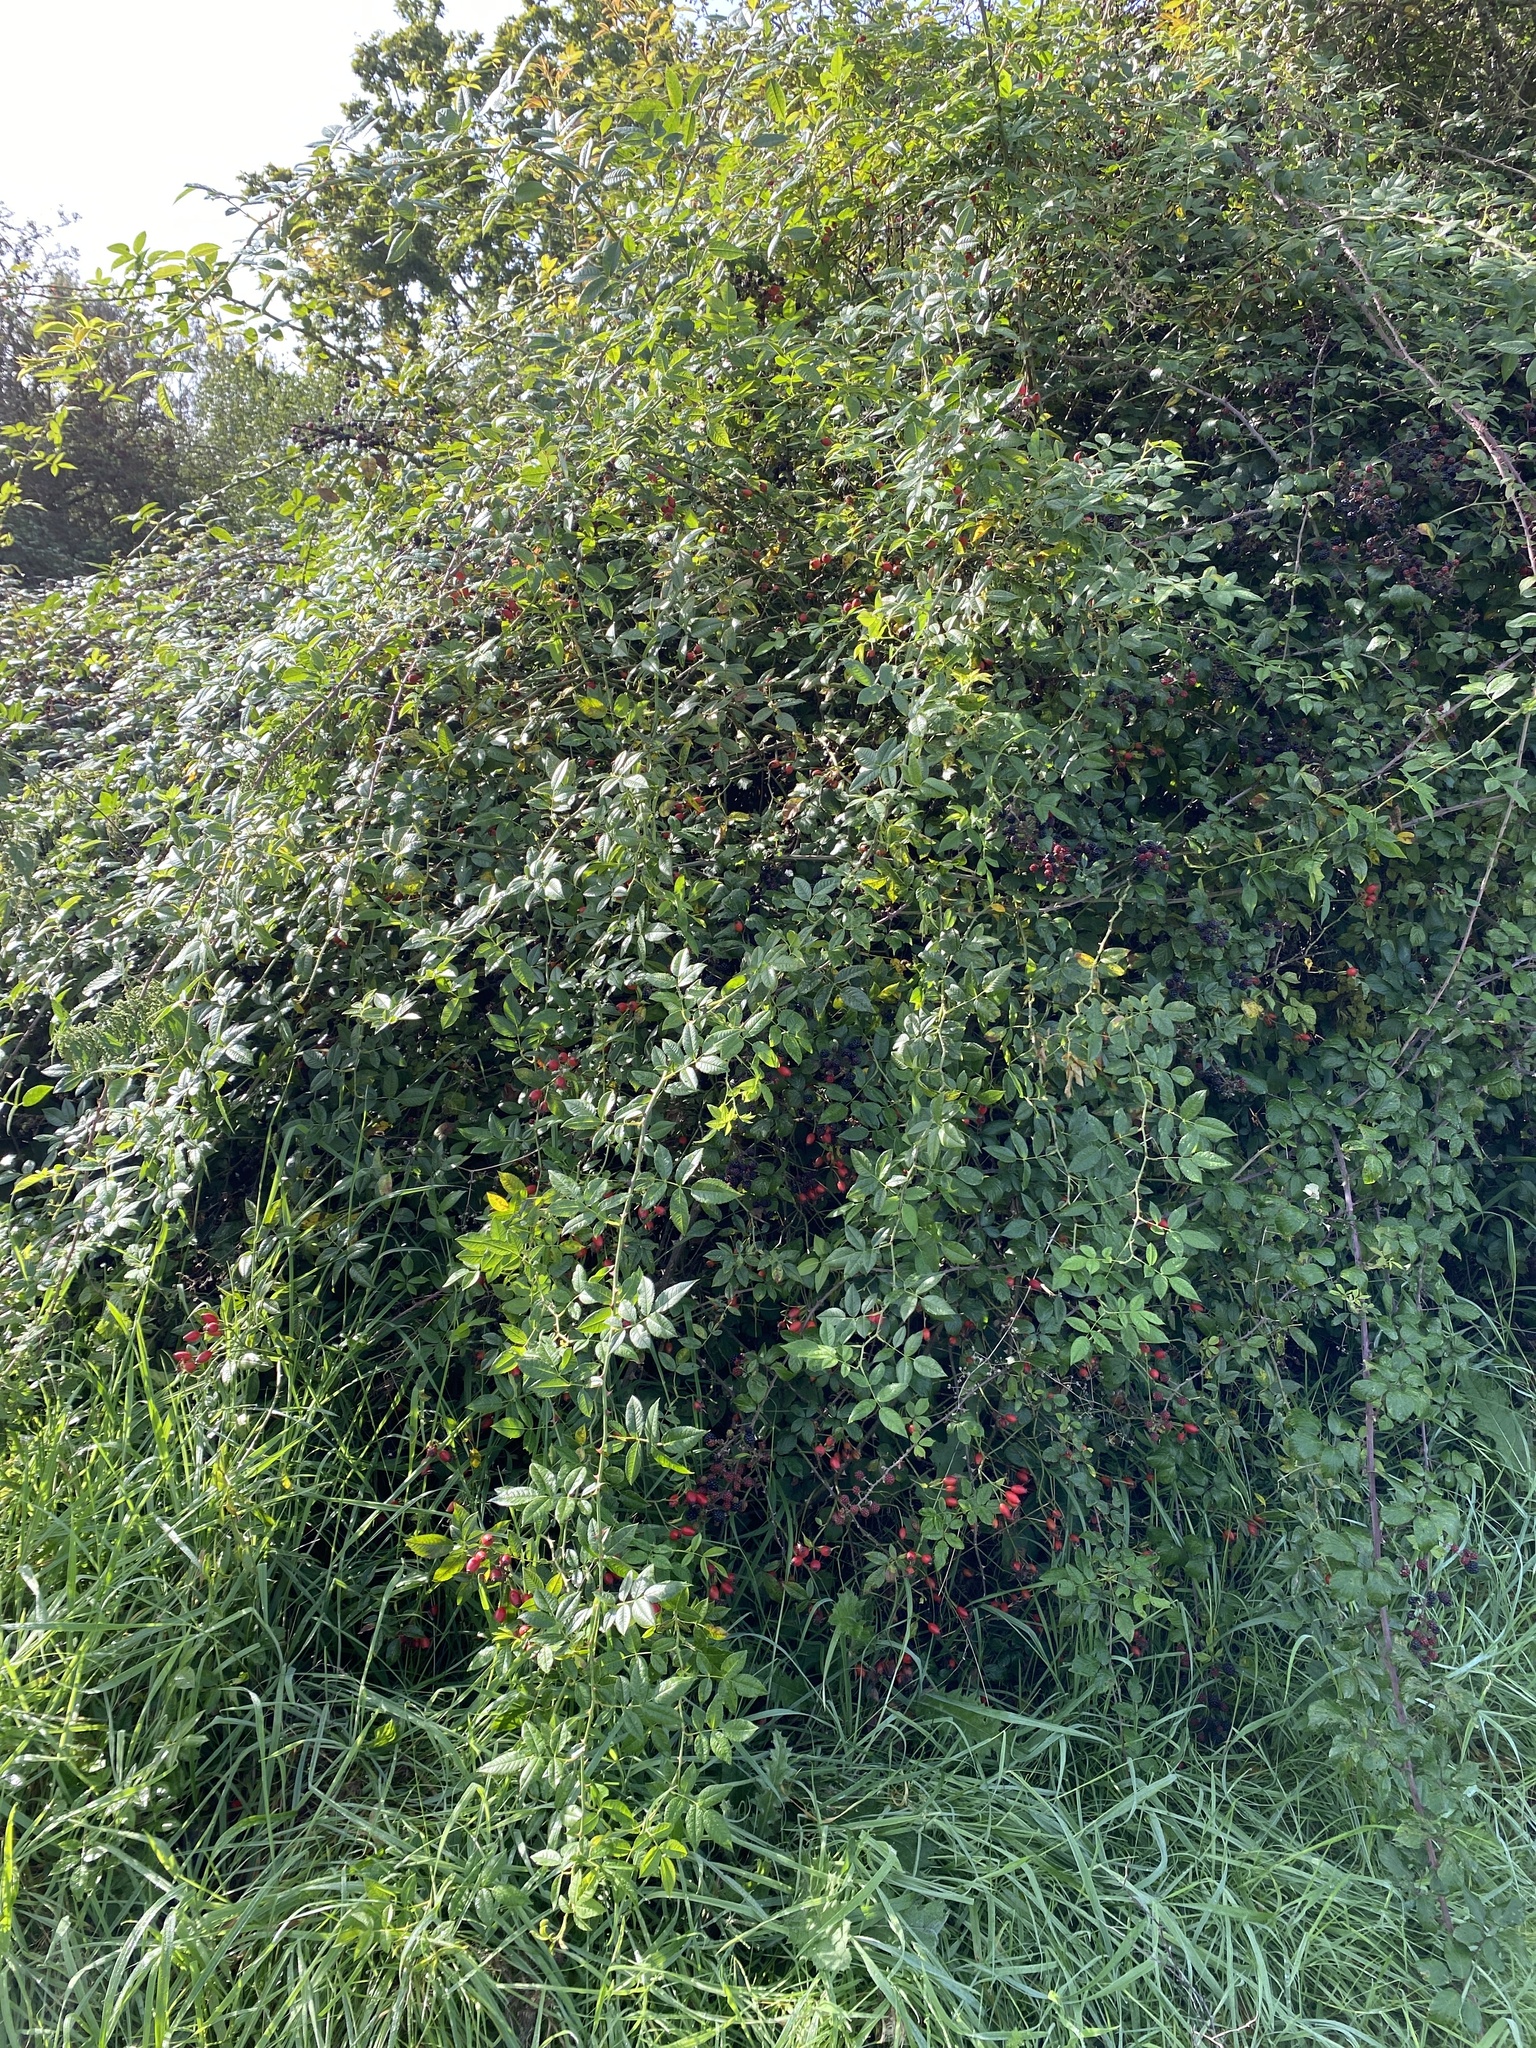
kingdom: Plantae
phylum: Tracheophyta
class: Magnoliopsida
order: Rosales
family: Rosaceae
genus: Rosa
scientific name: Rosa canina
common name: Dog rose
